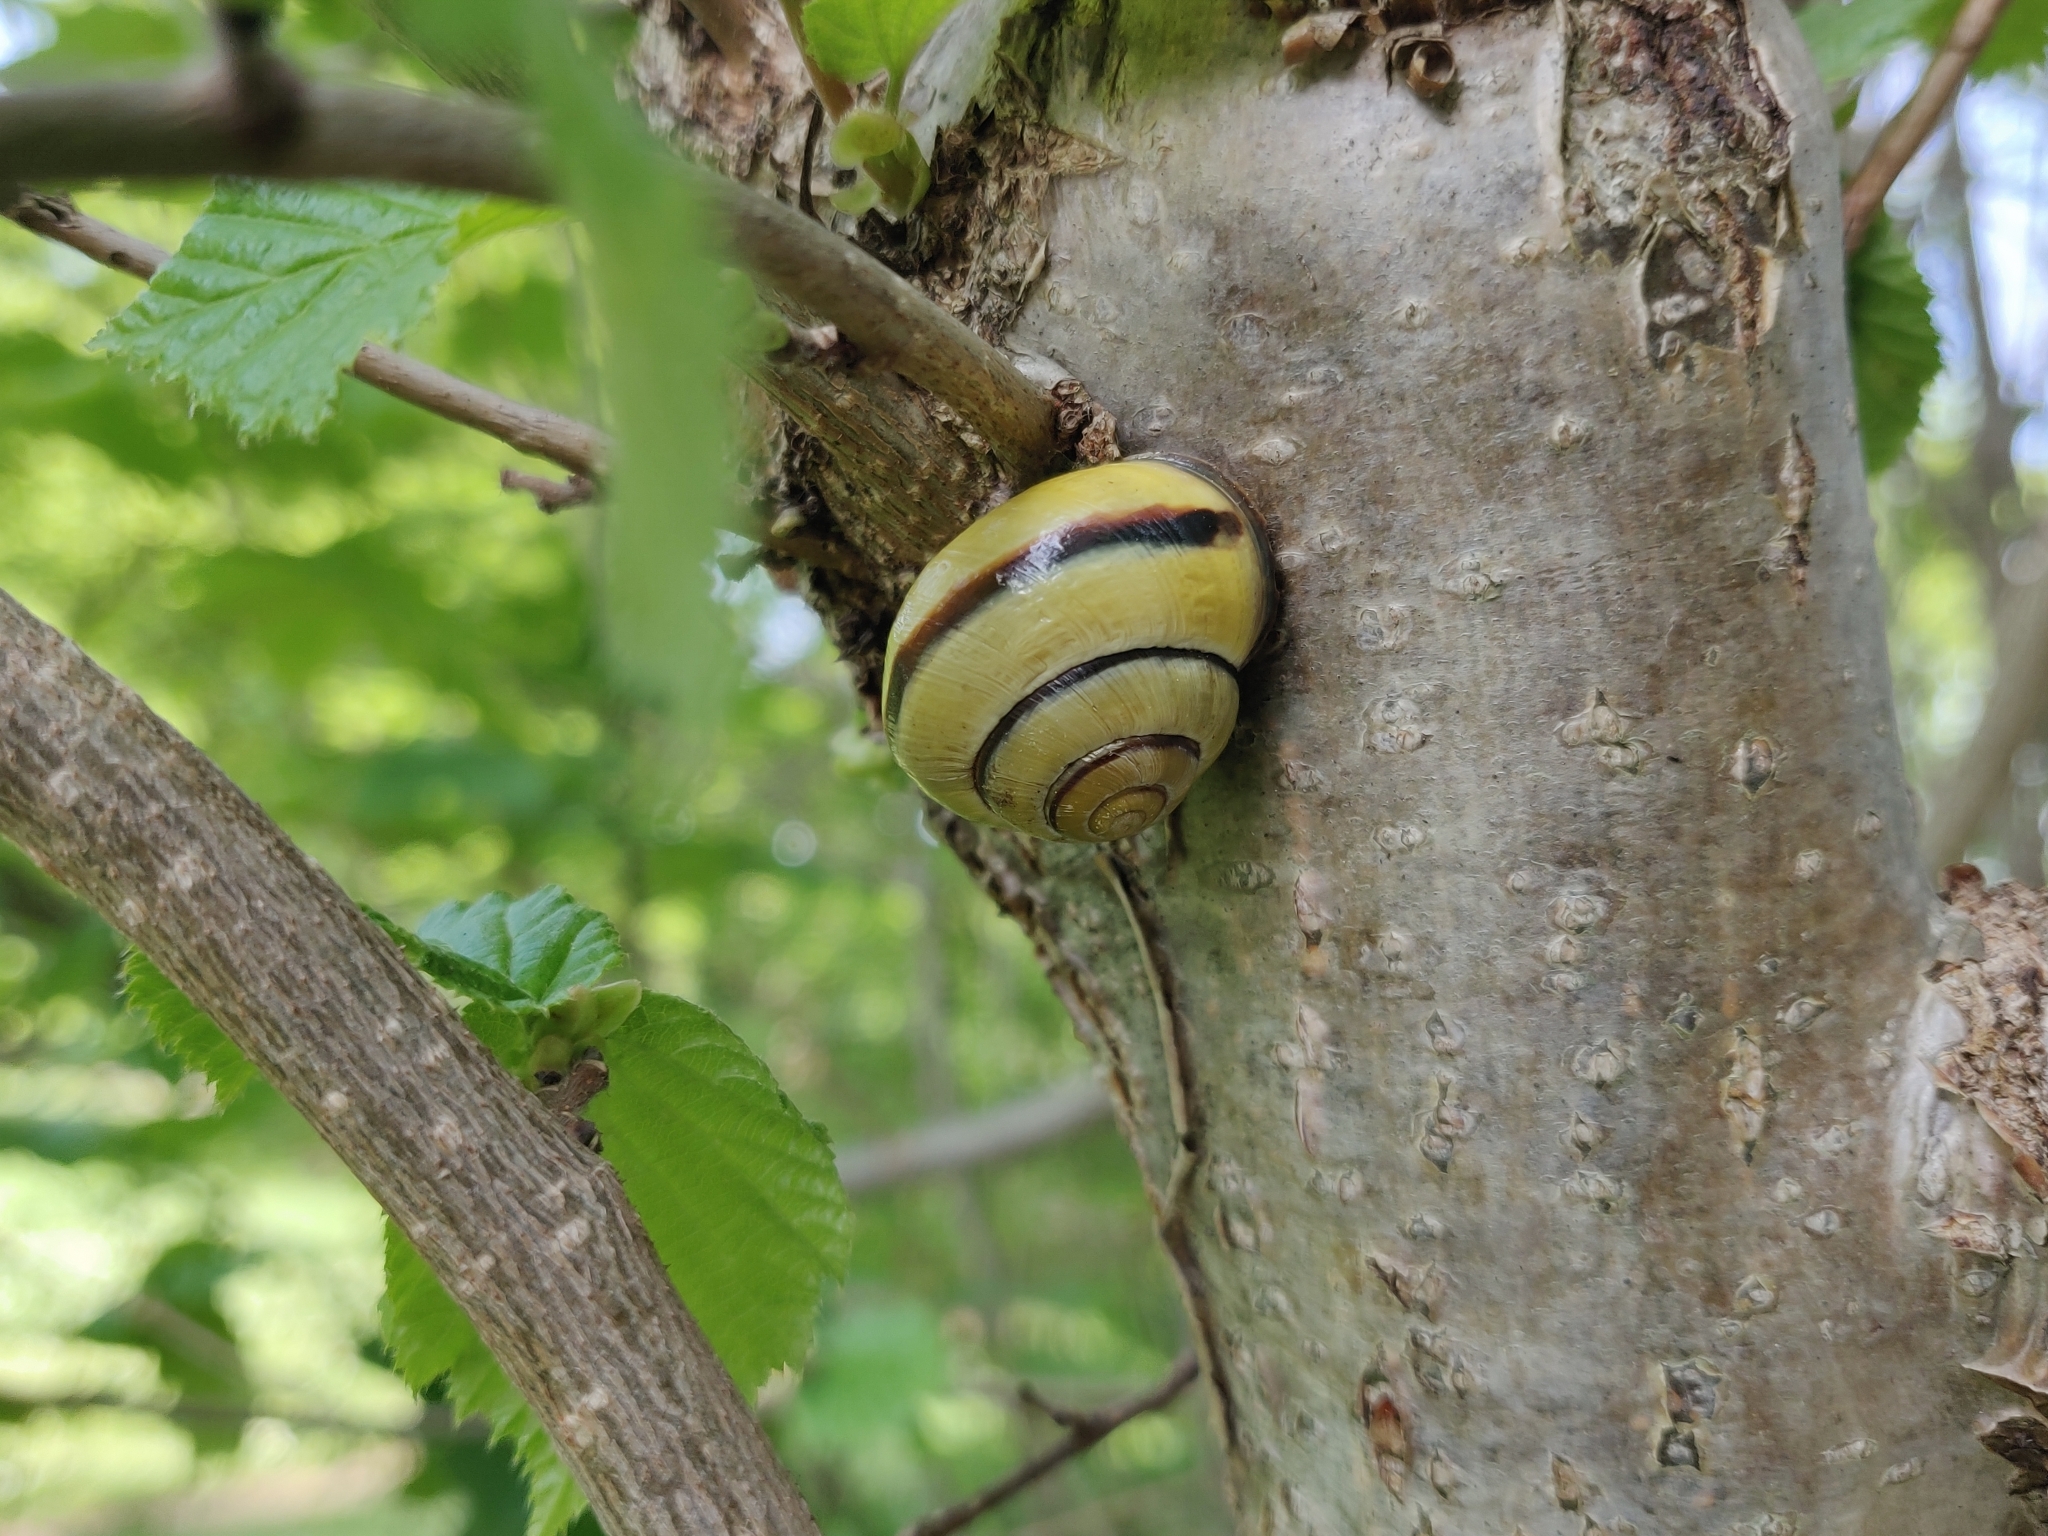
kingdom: Animalia
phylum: Mollusca
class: Gastropoda
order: Stylommatophora
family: Helicidae
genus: Cepaea
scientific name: Cepaea nemoralis
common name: Grovesnail
